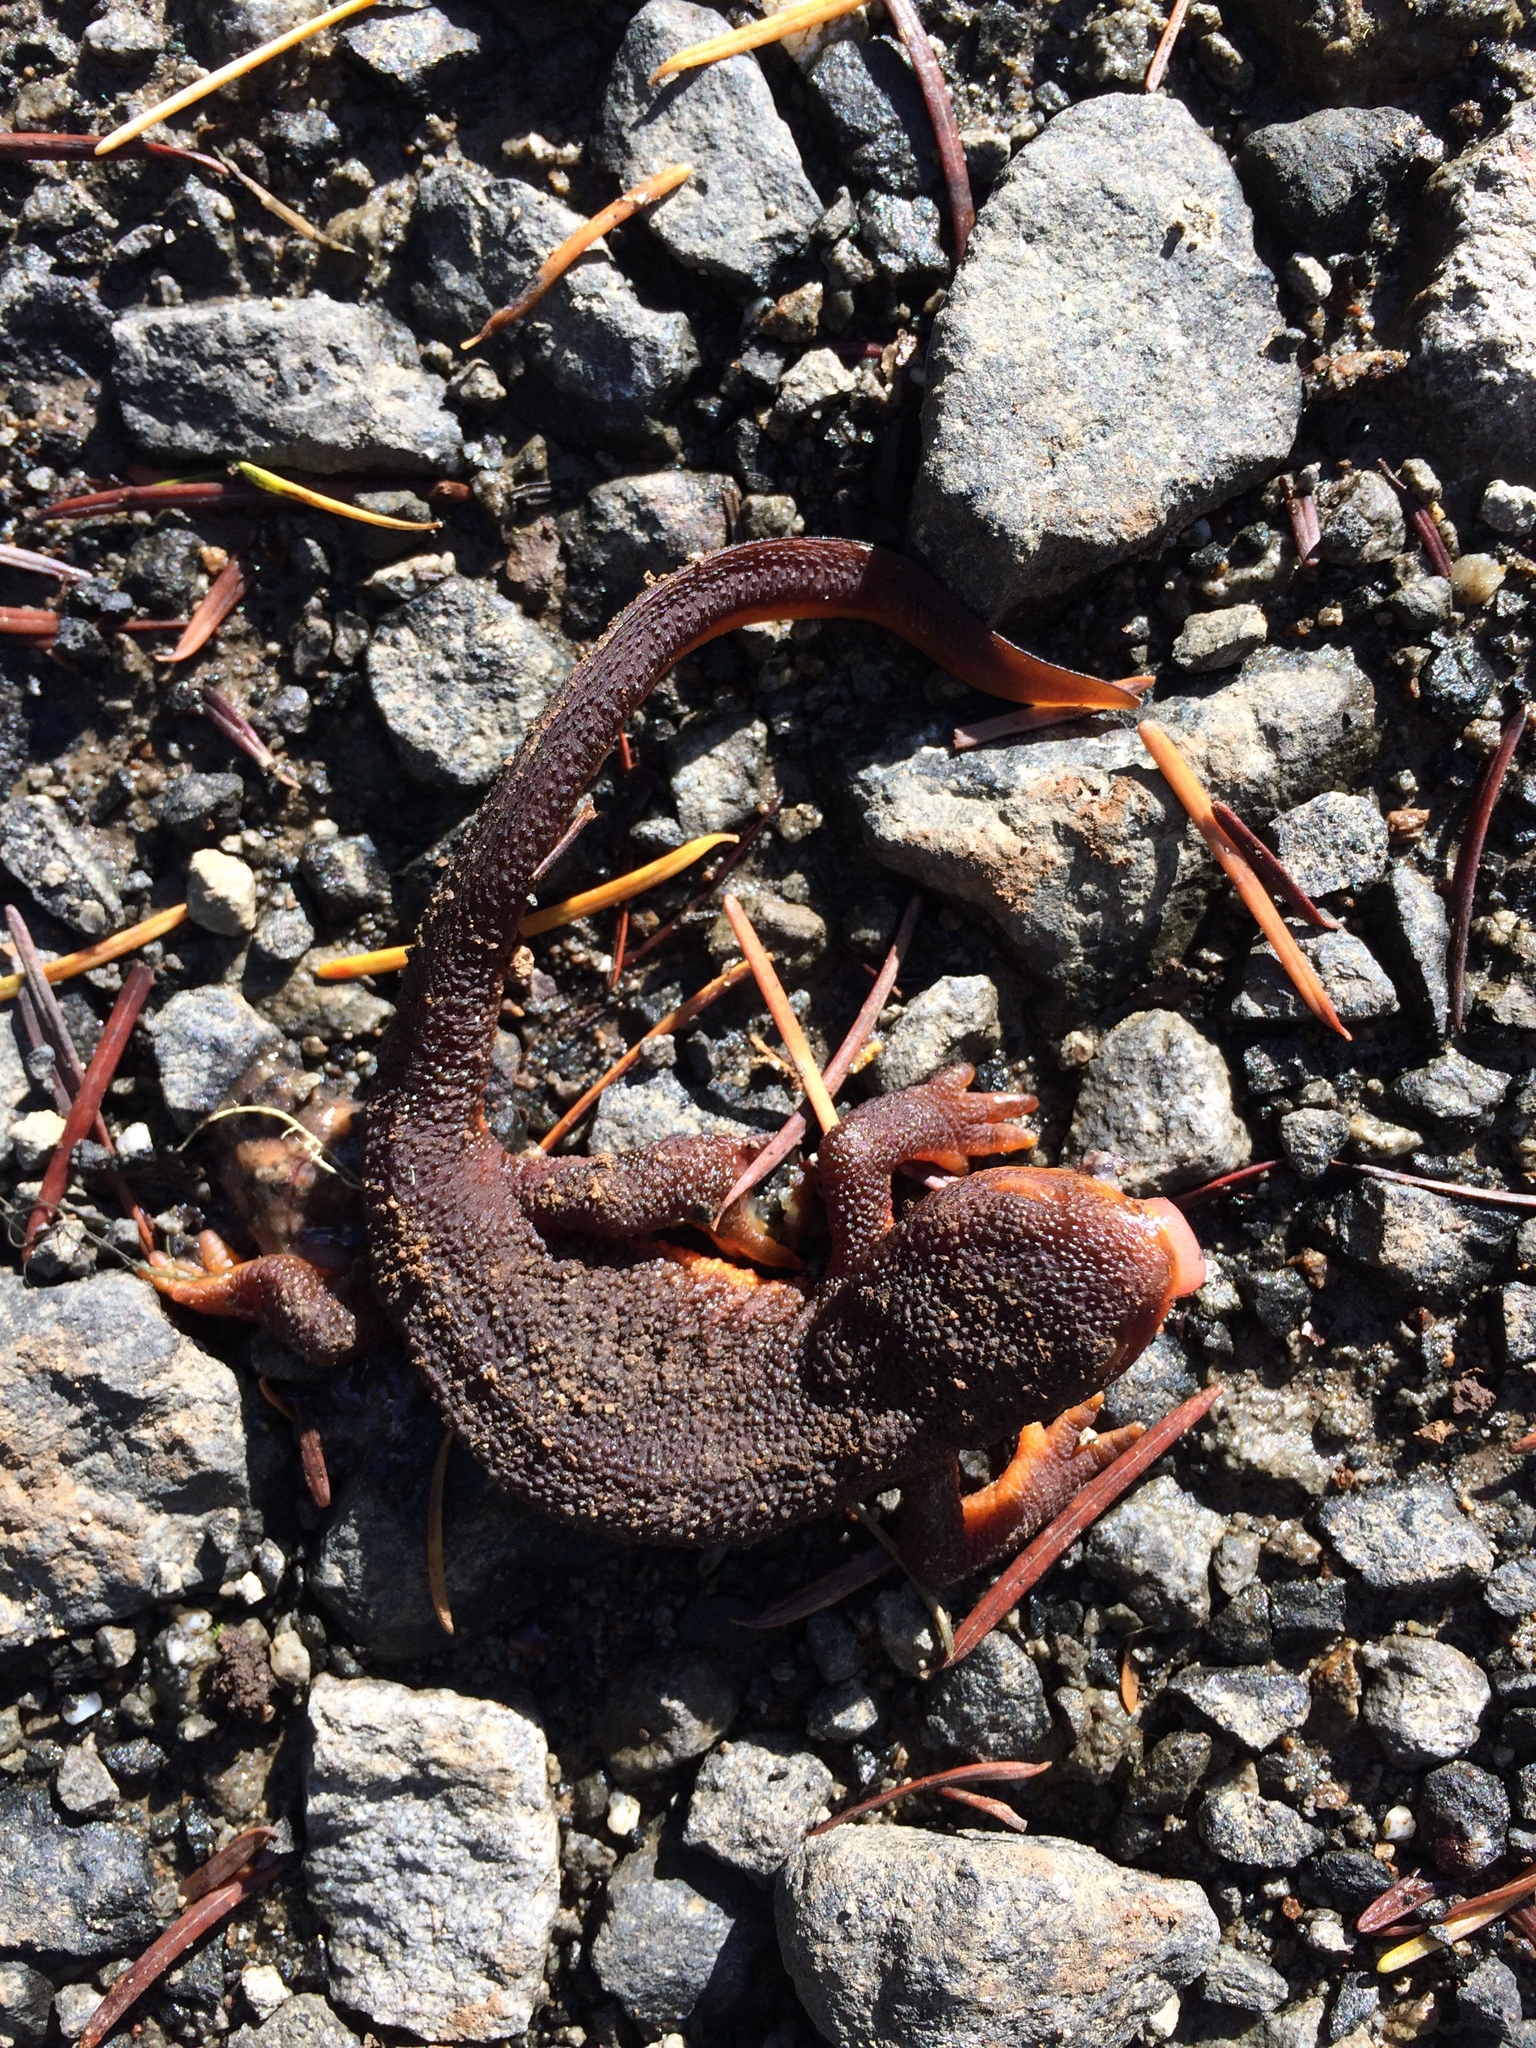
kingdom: Animalia
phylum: Chordata
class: Amphibia
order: Caudata
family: Salamandridae
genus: Taricha
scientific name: Taricha granulosa
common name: Roughskin newt
